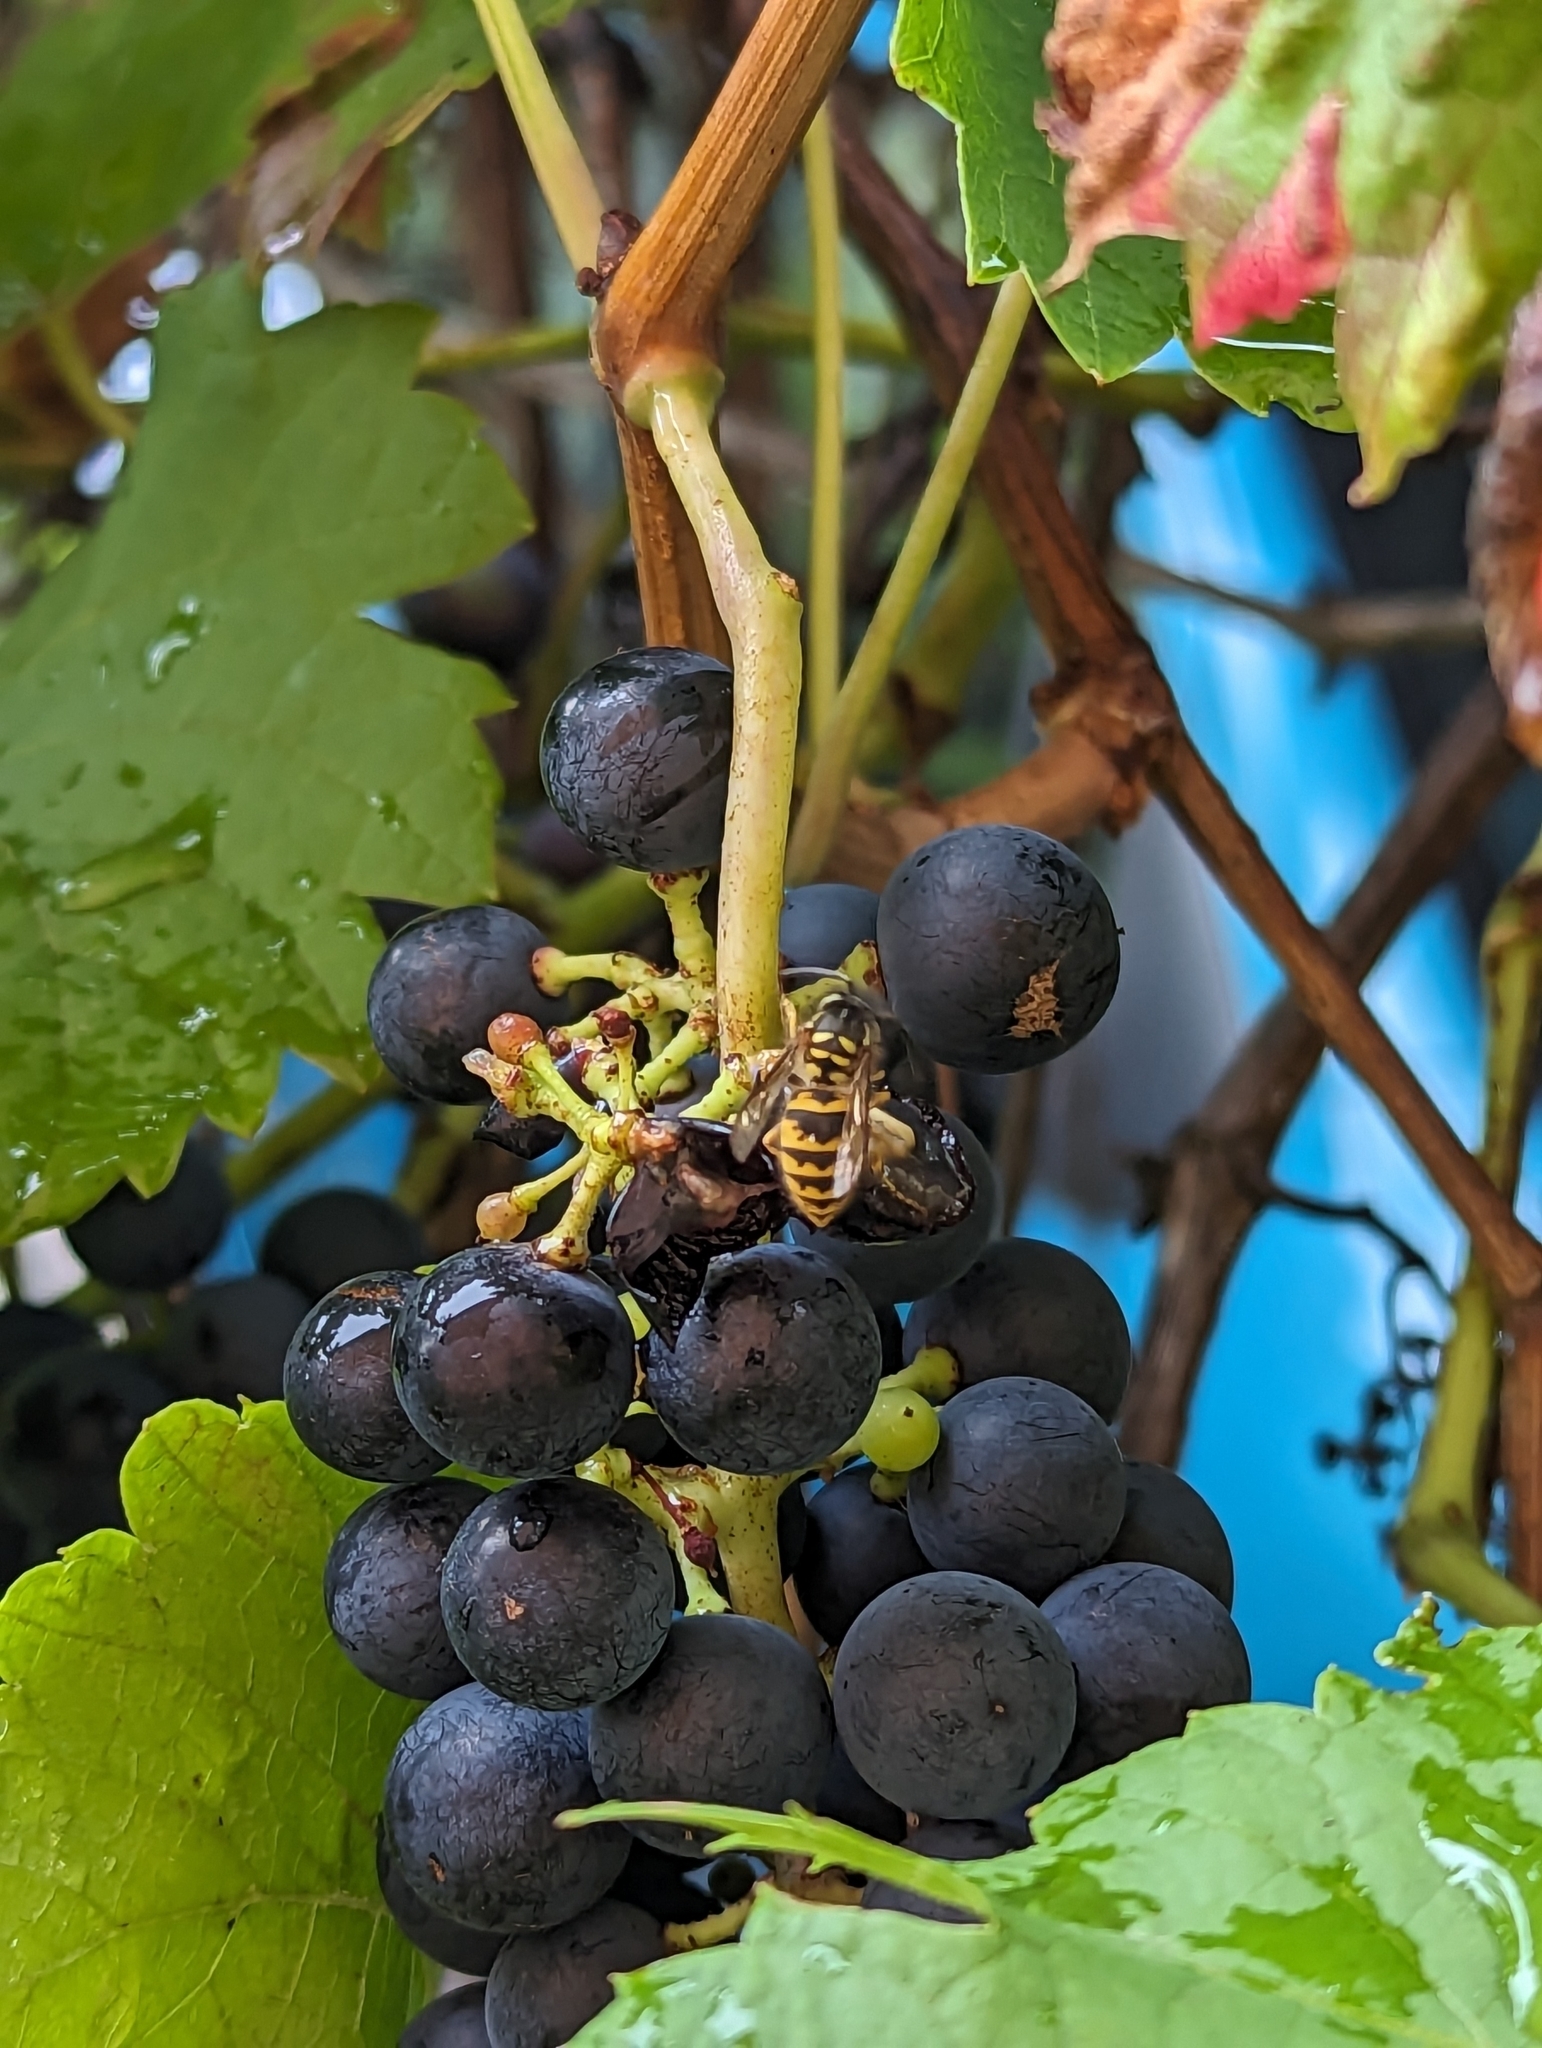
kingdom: Animalia
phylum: Arthropoda
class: Insecta
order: Hymenoptera
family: Vespidae
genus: Vespula
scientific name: Vespula vulgaris
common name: Common wasp
